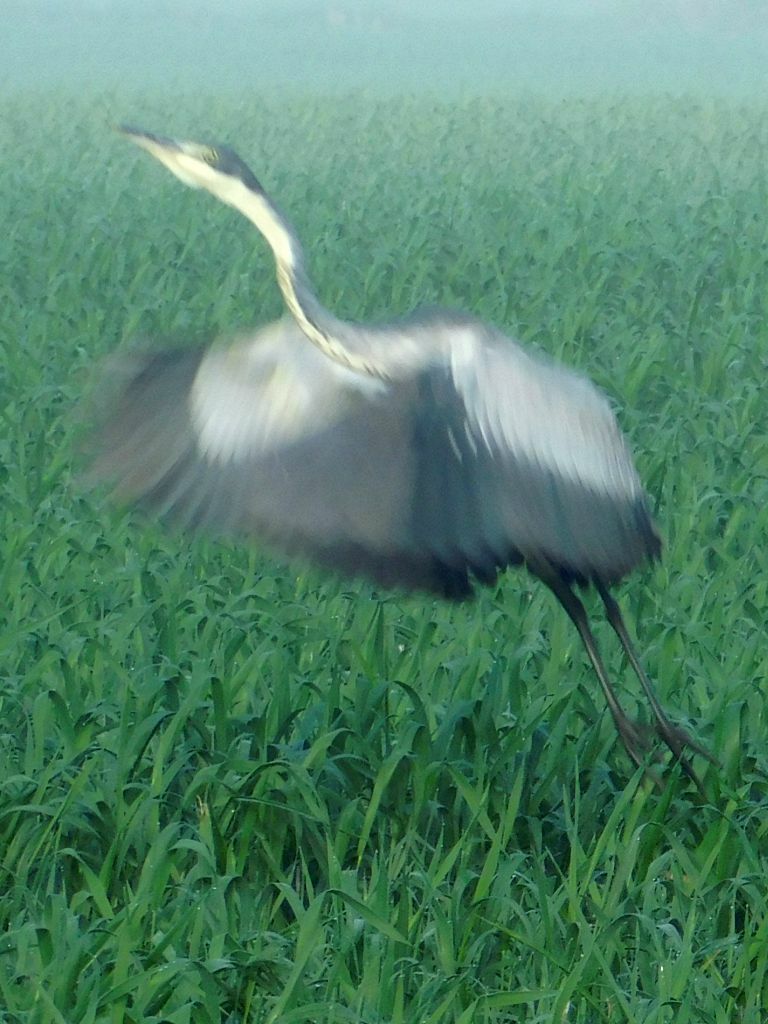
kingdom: Animalia
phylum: Chordata
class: Aves
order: Pelecaniformes
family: Ardeidae
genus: Ardea
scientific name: Ardea melanocephala
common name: Black-headed heron
